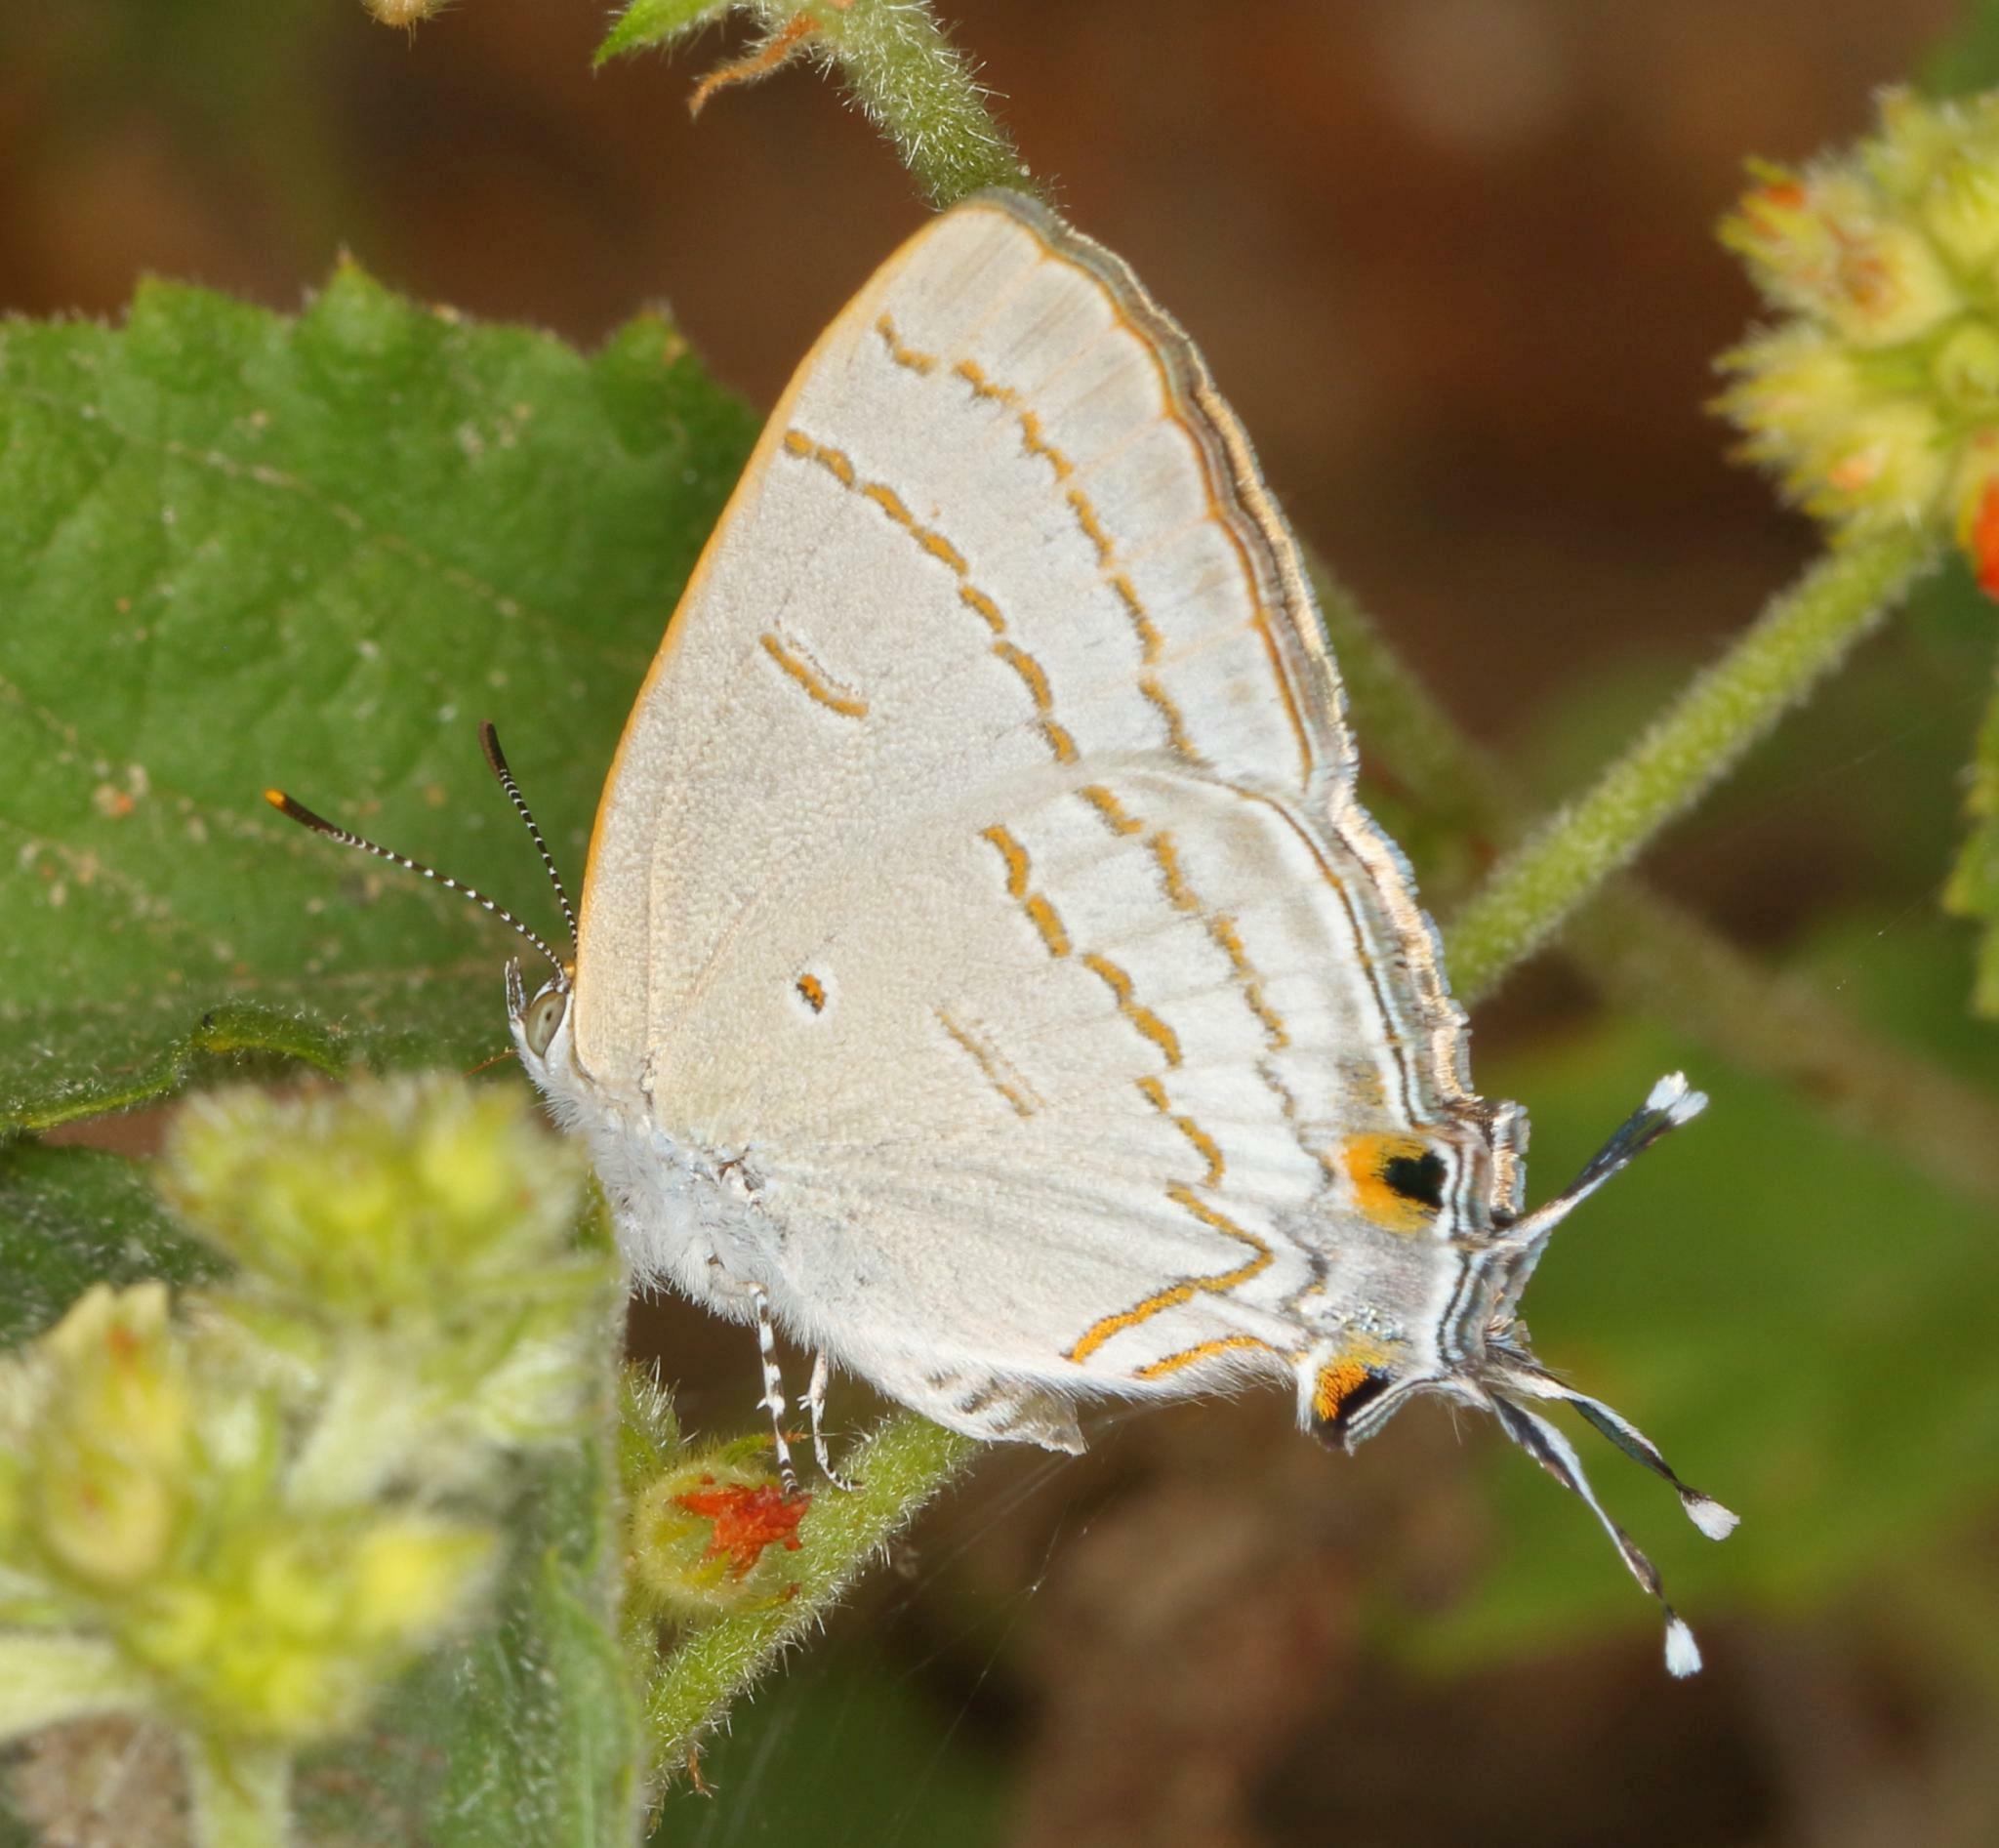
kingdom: Animalia
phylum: Arthropoda
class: Insecta
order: Lepidoptera
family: Lycaenidae
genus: Hypolycaena
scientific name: Hypolycaena philippus
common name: Common hairstreak
